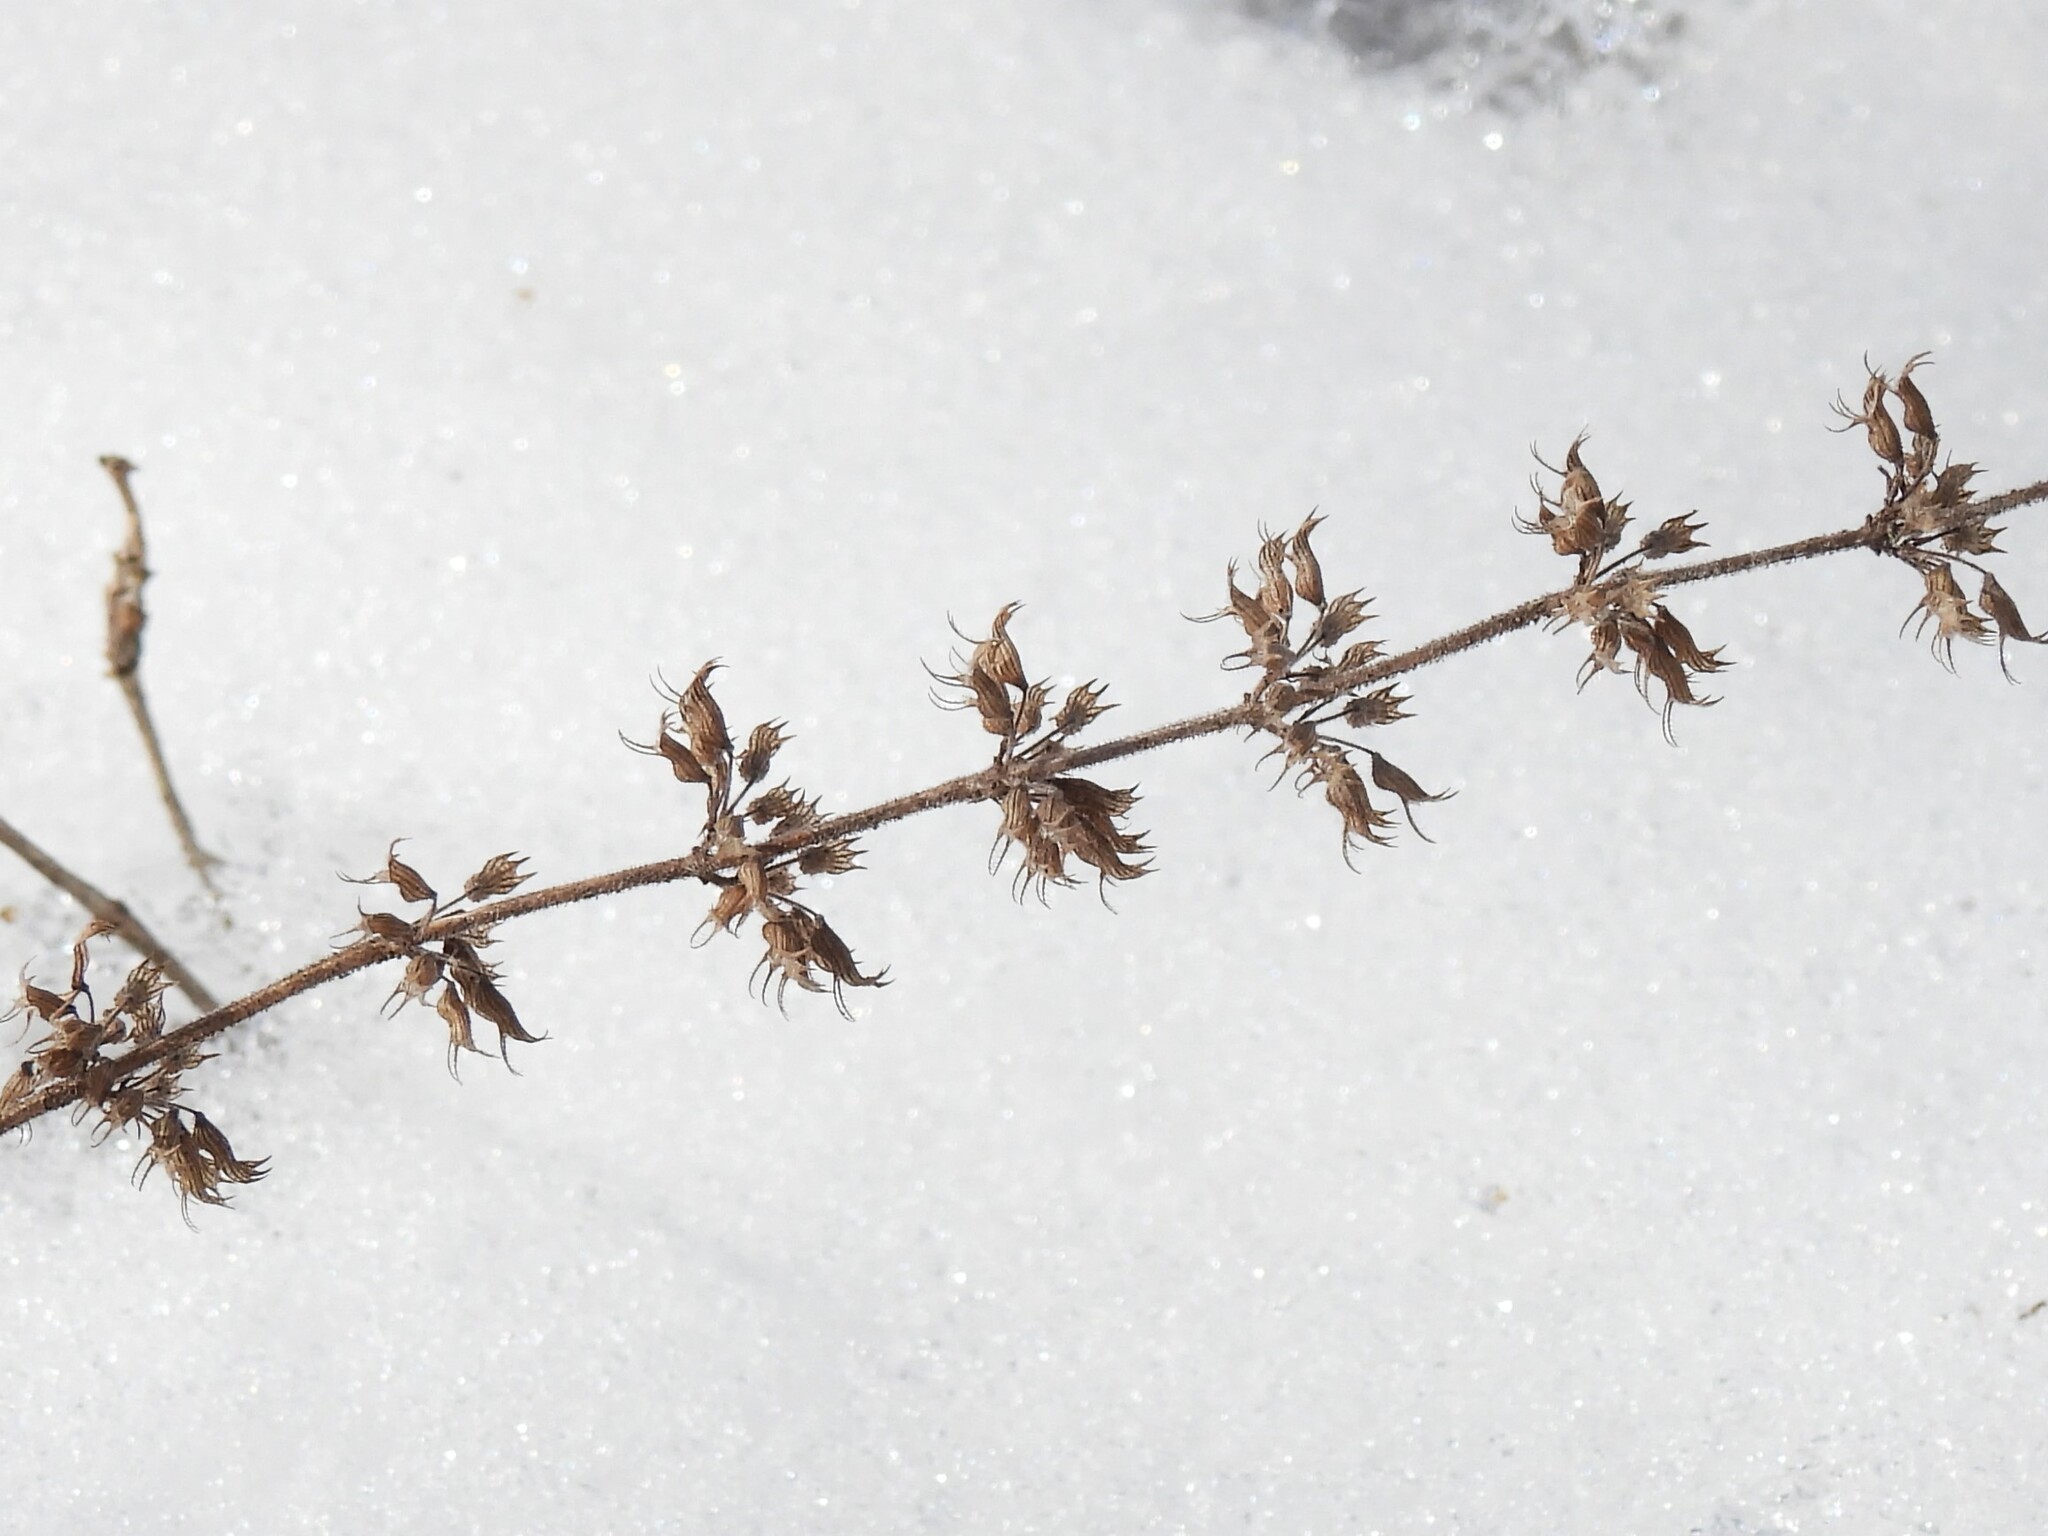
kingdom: Plantae
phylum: Tracheophyta
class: Magnoliopsida
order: Lamiales
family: Lamiaceae
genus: Hedeoma
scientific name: Hedeoma pulegioides
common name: American false pennyroyal
